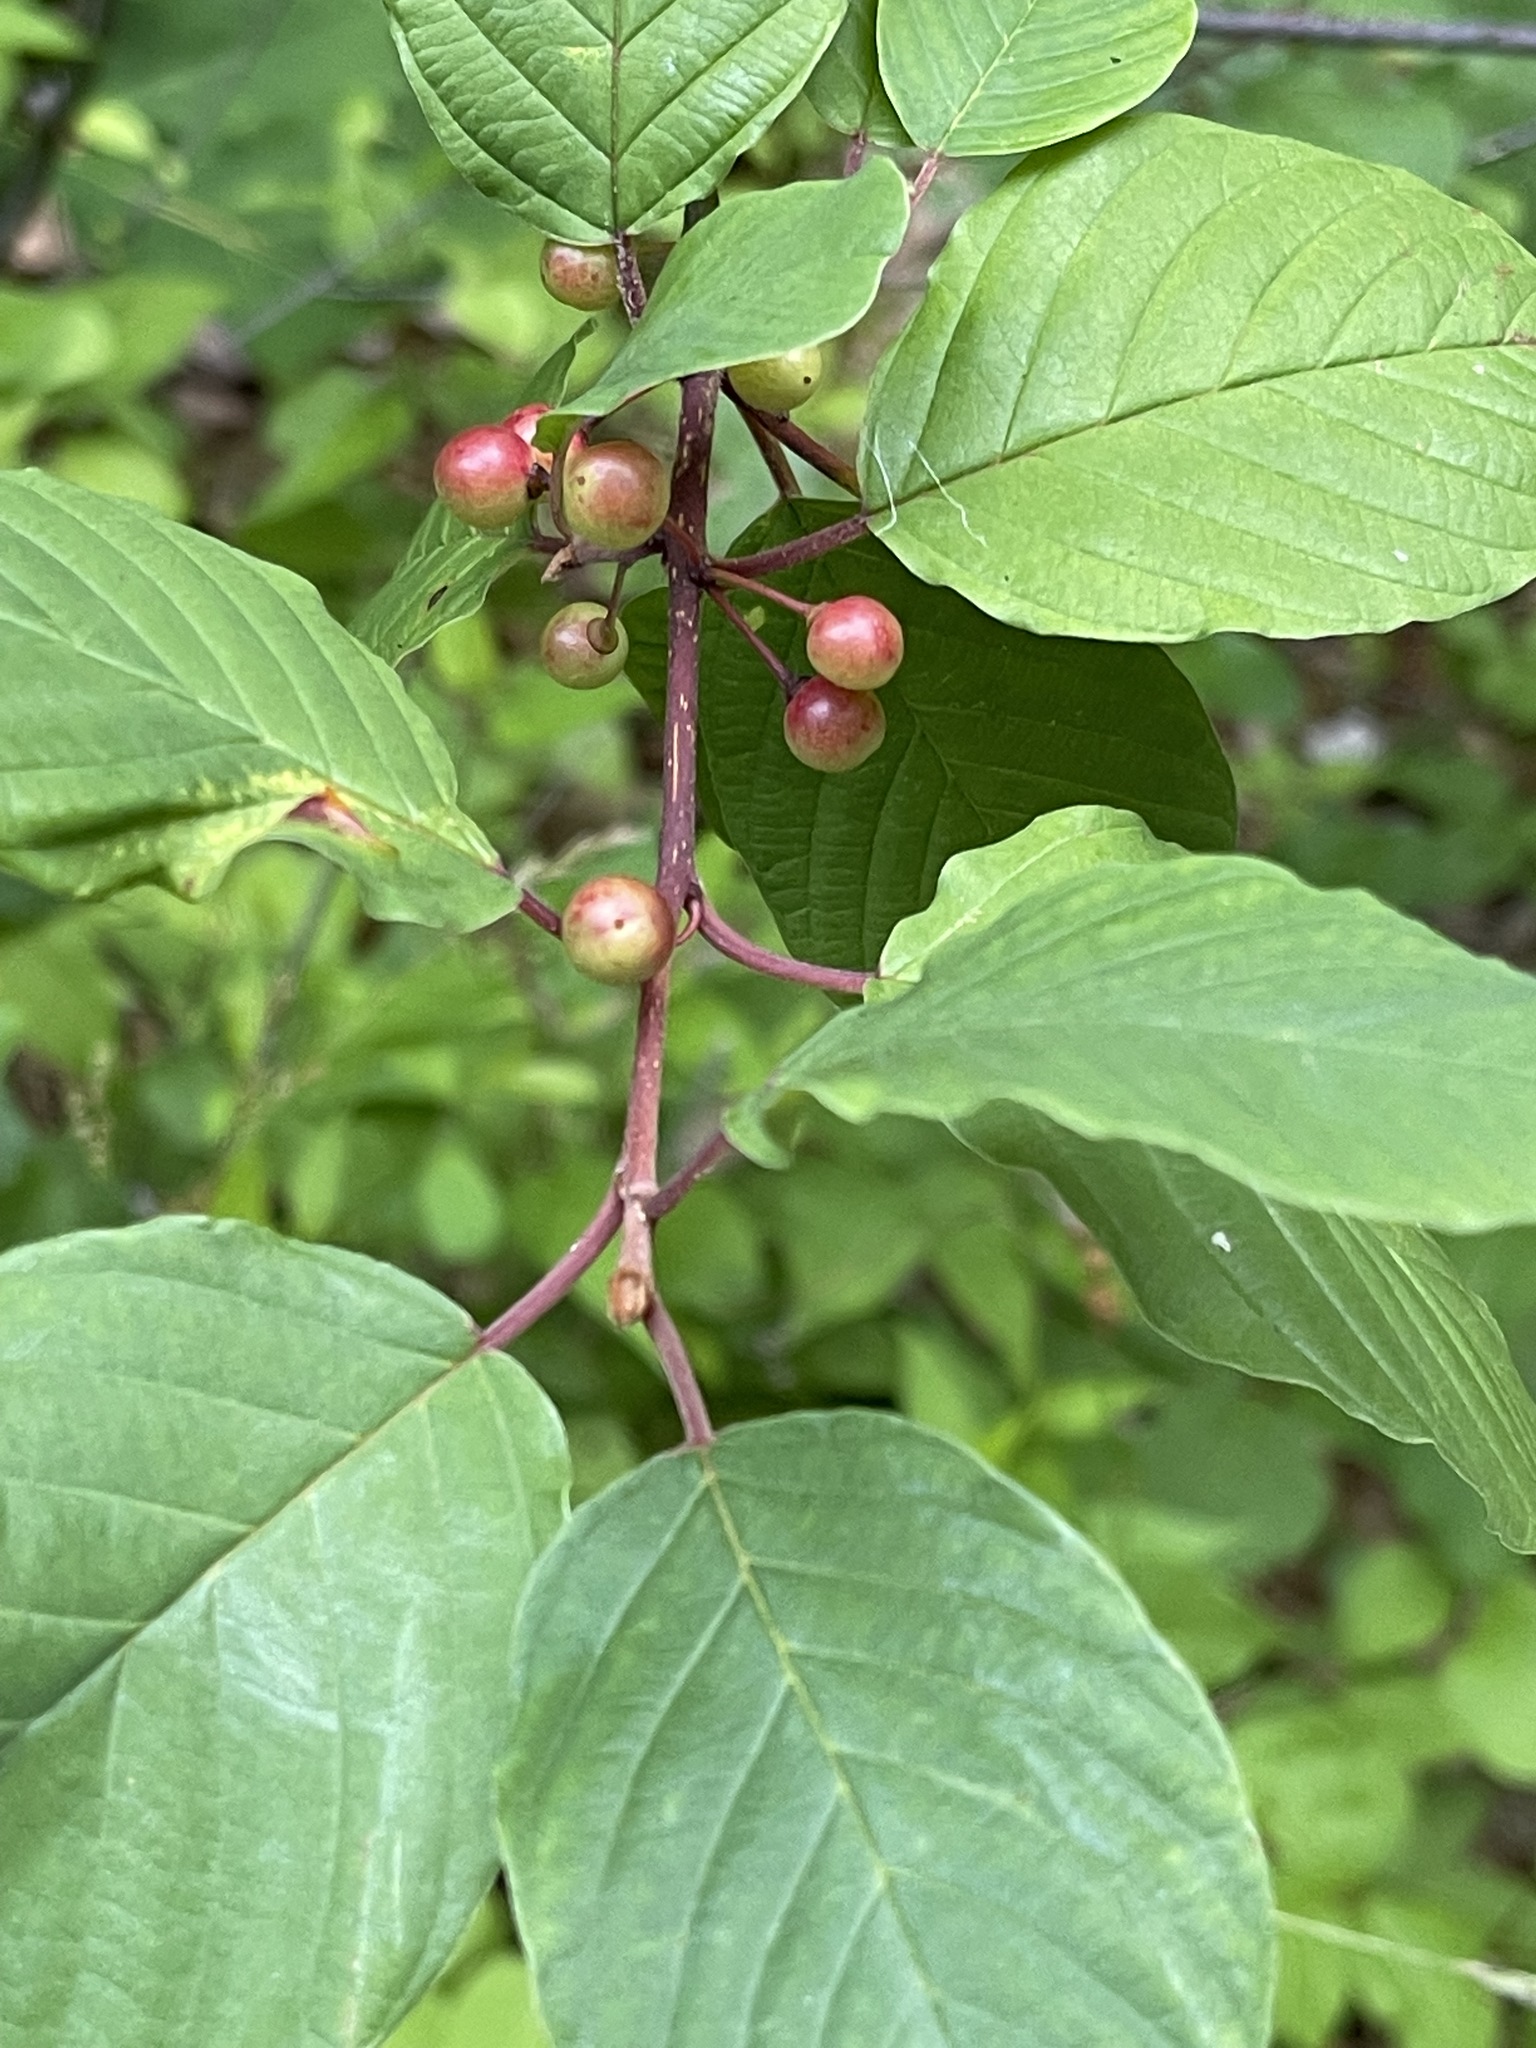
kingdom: Plantae
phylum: Tracheophyta
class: Magnoliopsida
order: Rosales
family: Rhamnaceae
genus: Frangula
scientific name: Frangula alnus
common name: Alder buckthorn
